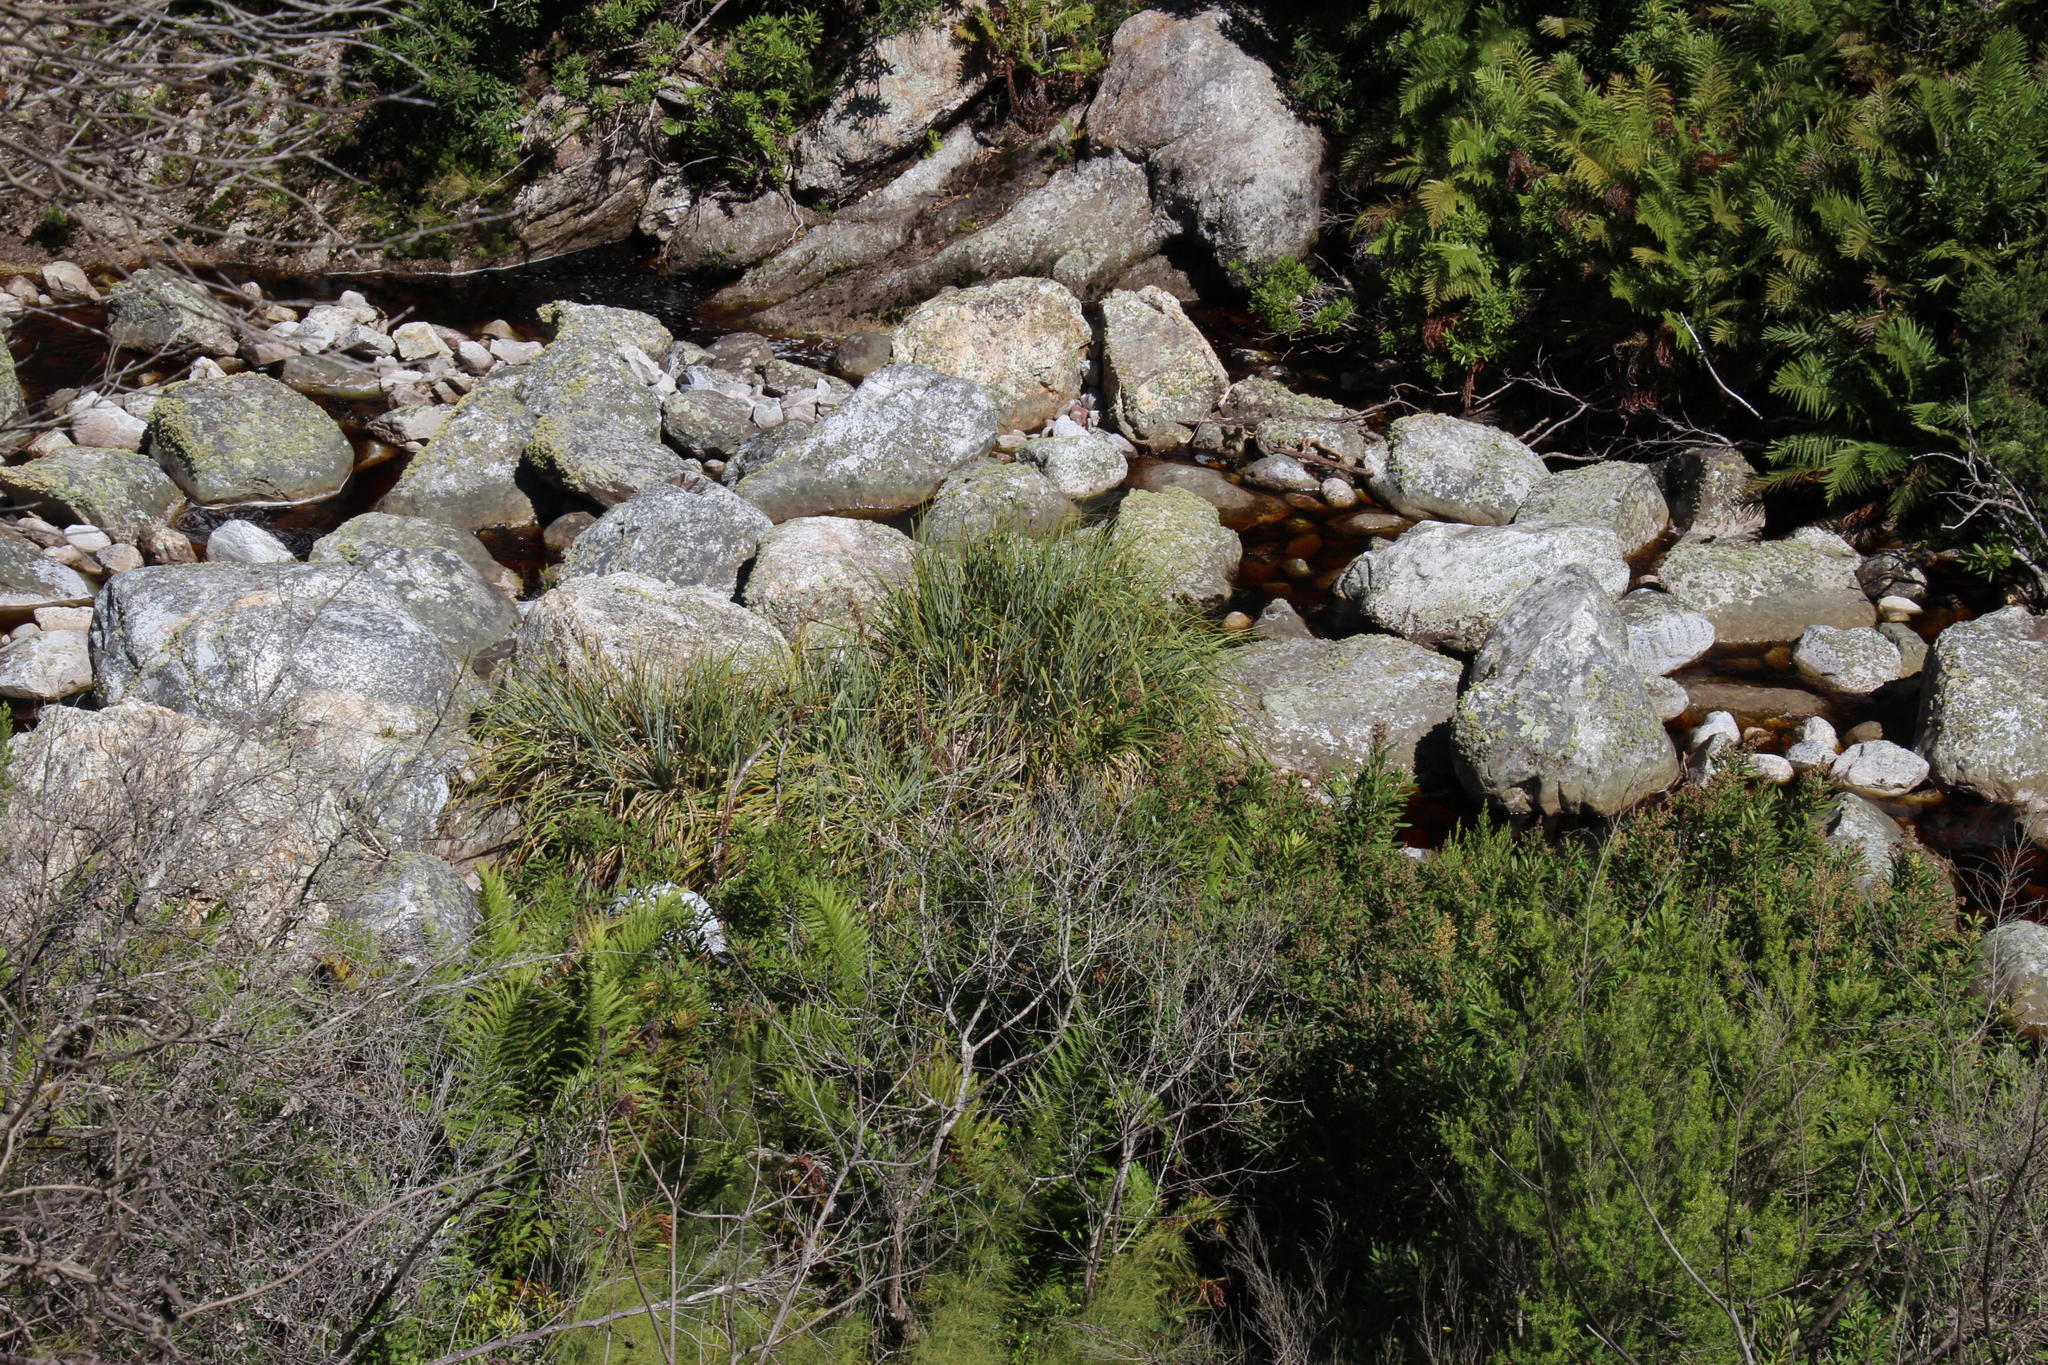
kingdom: Plantae
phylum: Tracheophyta
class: Liliopsida
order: Poales
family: Thurniaceae
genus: Prionium
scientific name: Prionium serratum
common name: Palmiet
